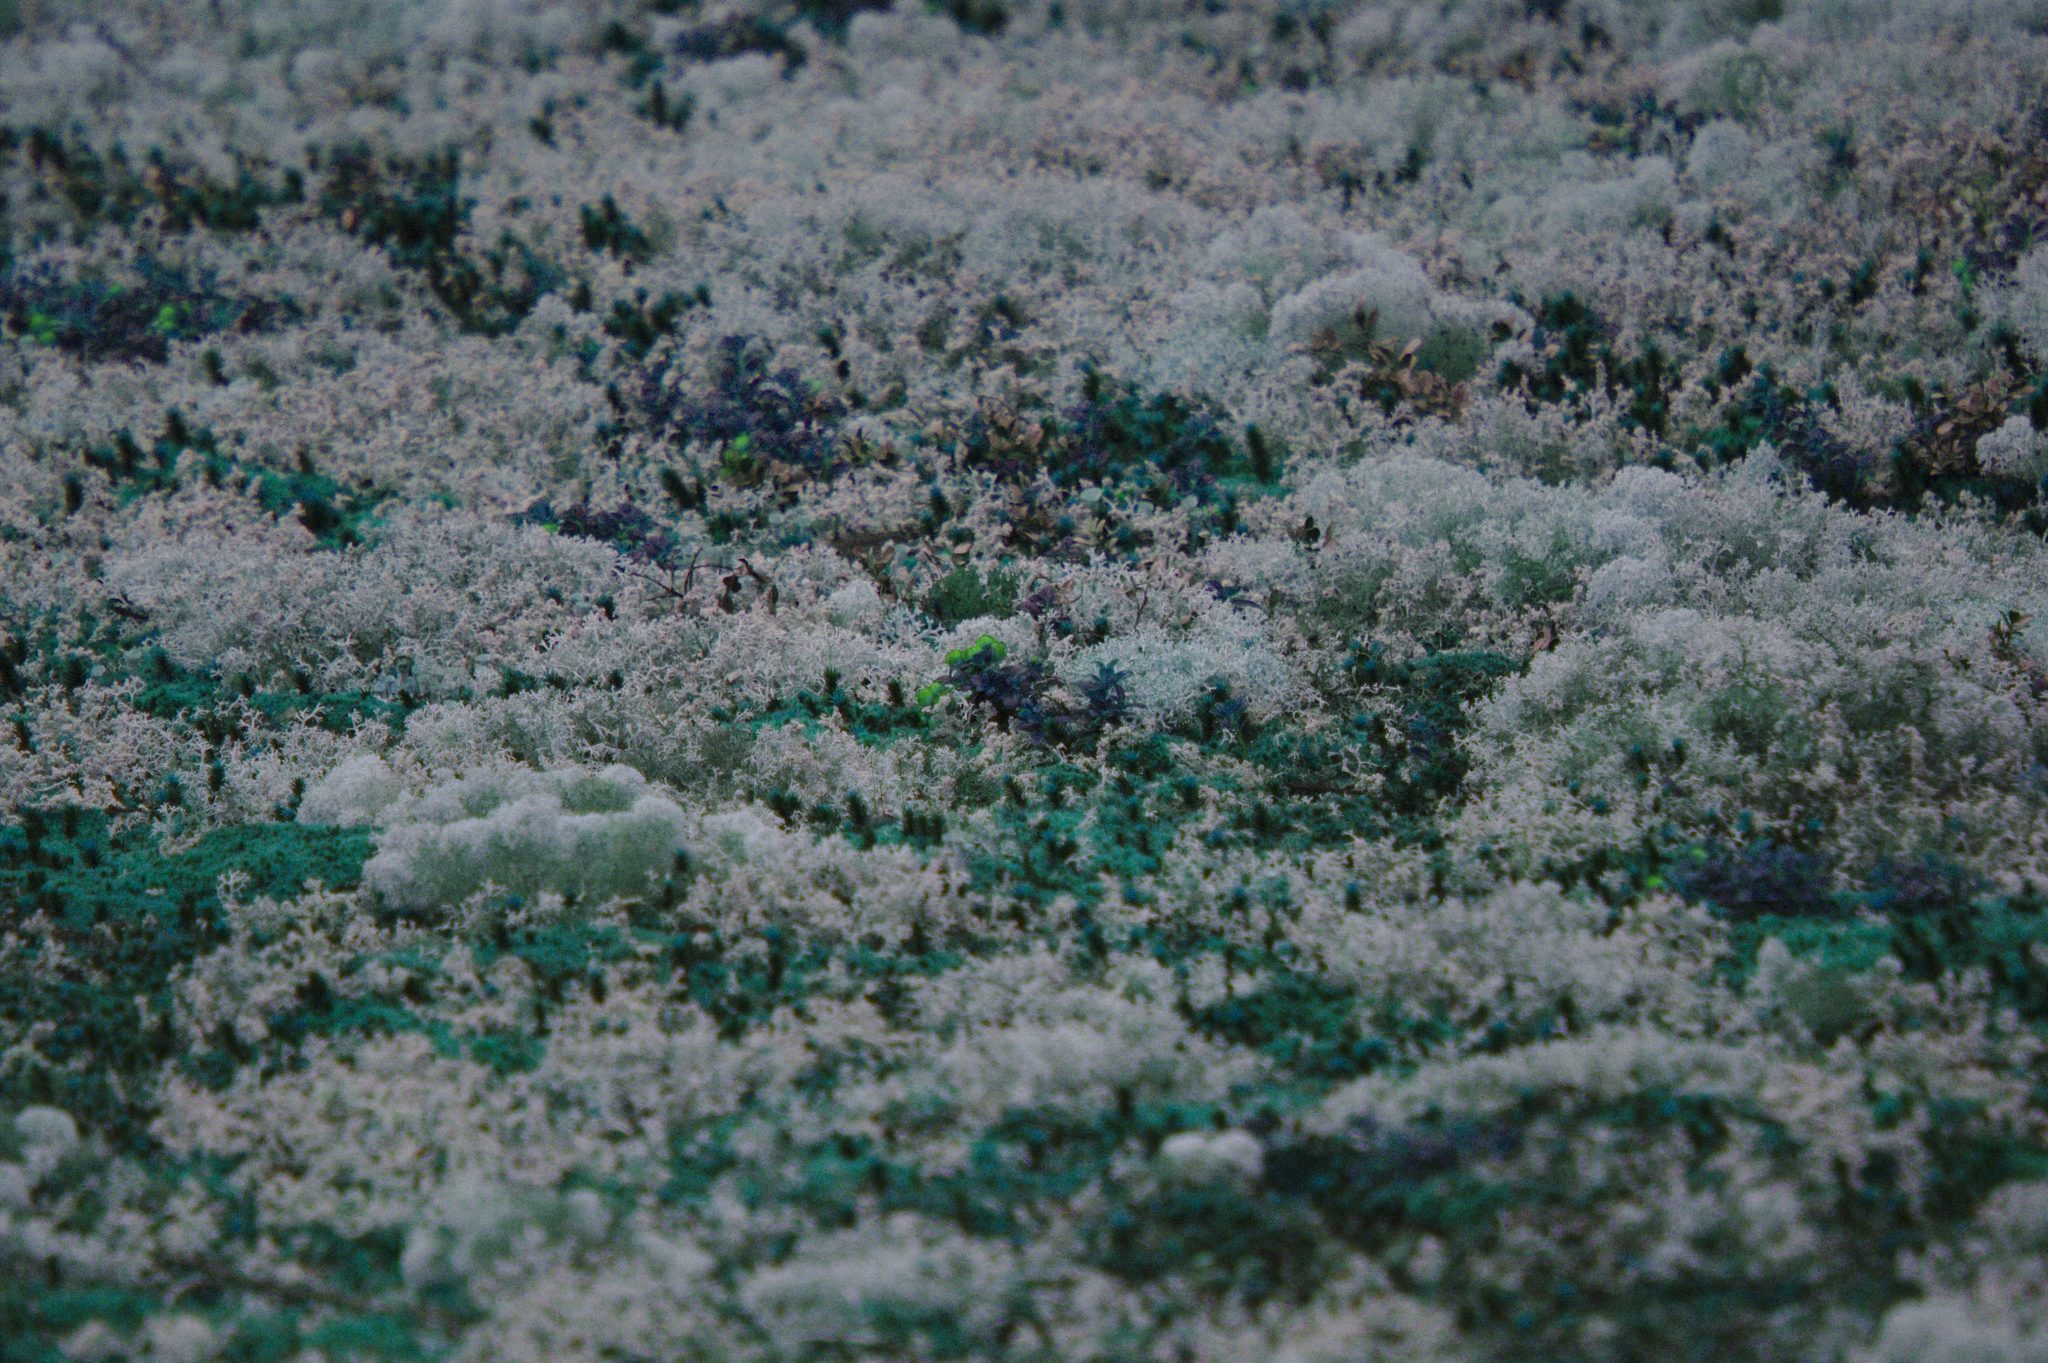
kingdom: Plantae
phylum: Tracheophyta
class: Magnoliopsida
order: Ericales
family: Ericaceae
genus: Vaccinium
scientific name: Vaccinium vitis-idaea
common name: Cowberry
